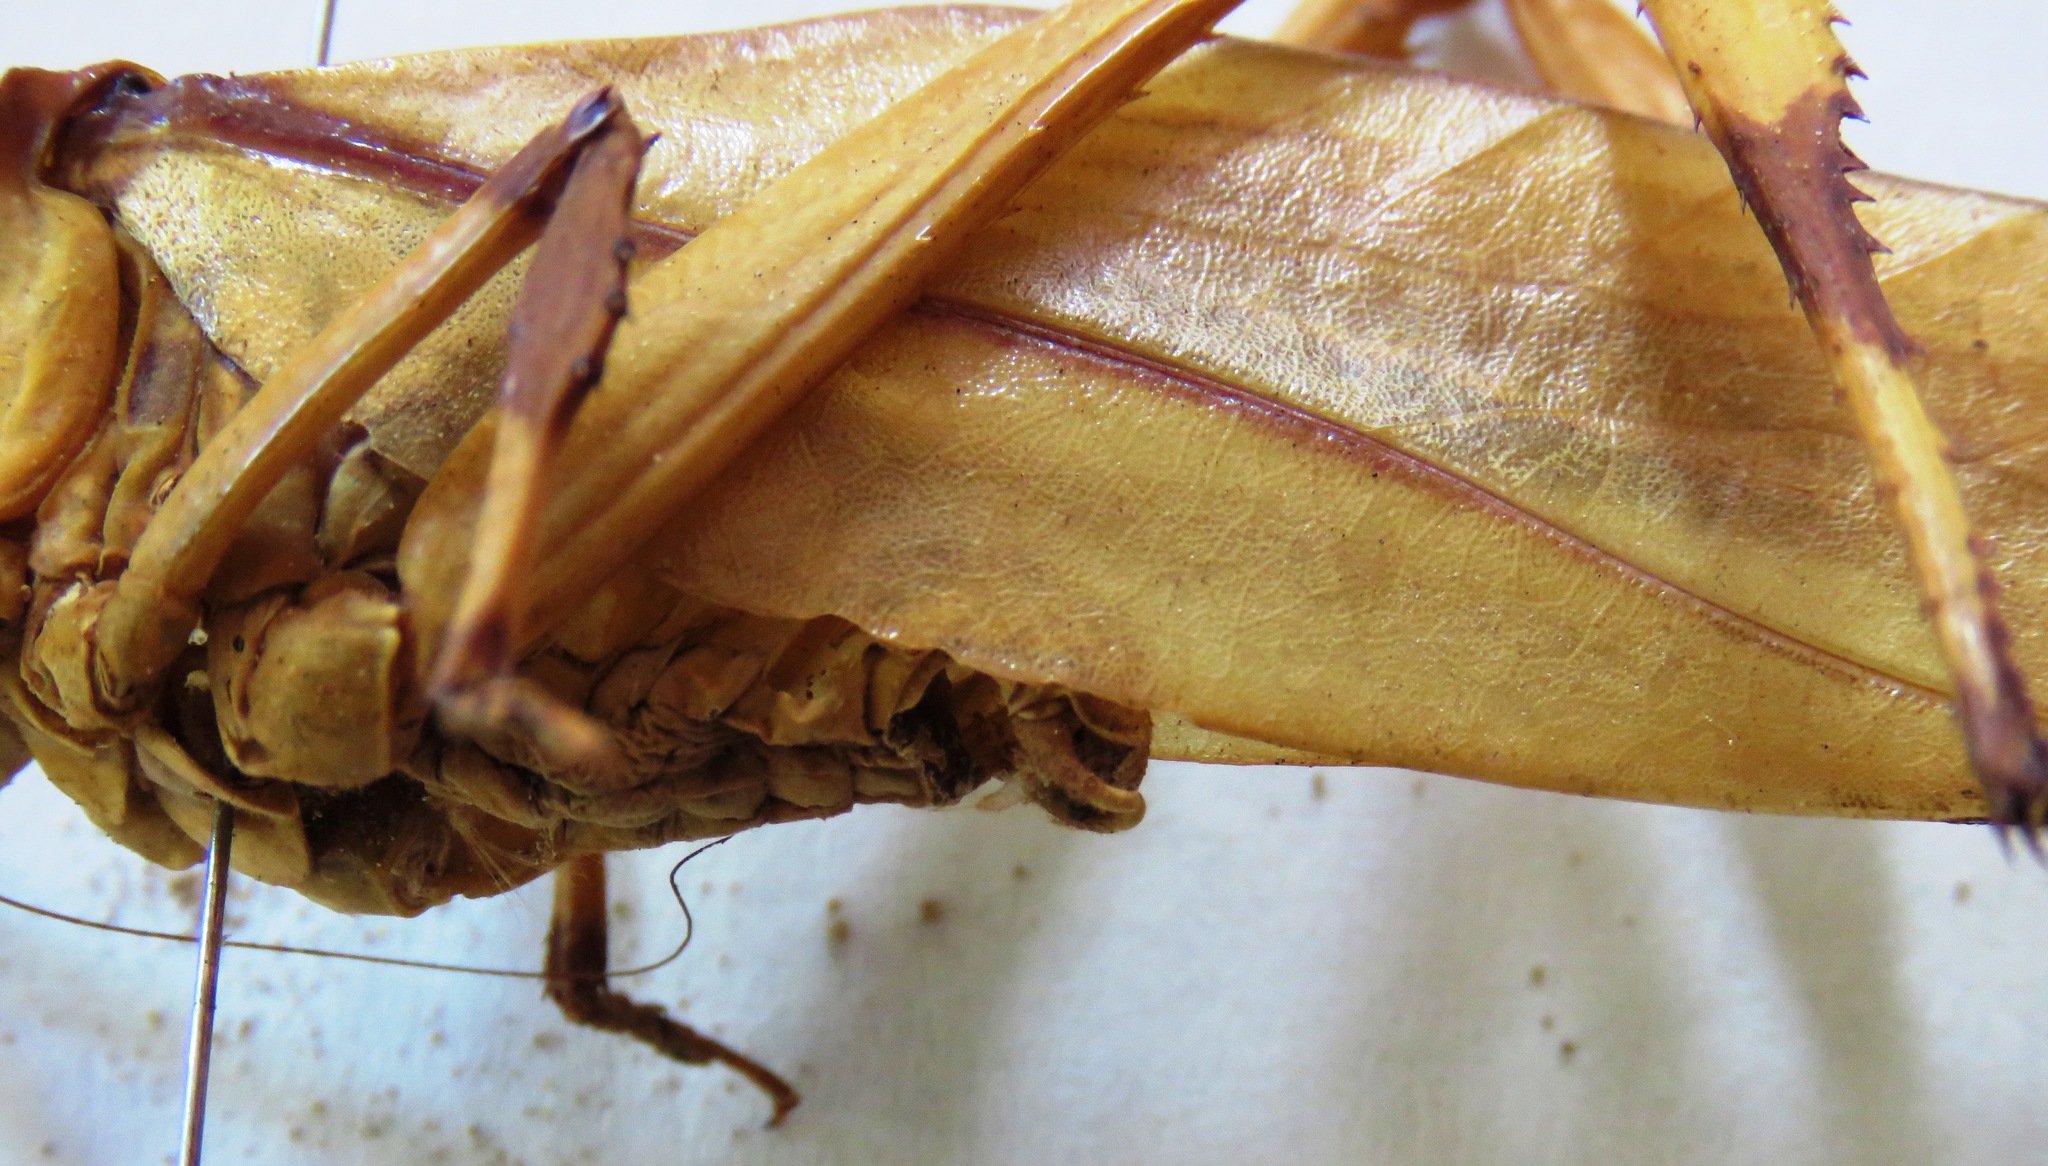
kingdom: Animalia
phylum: Arthropoda
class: Insecta
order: Orthoptera
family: Tettigoniidae
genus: Cnemidophyllum
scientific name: Cnemidophyllum eximium
